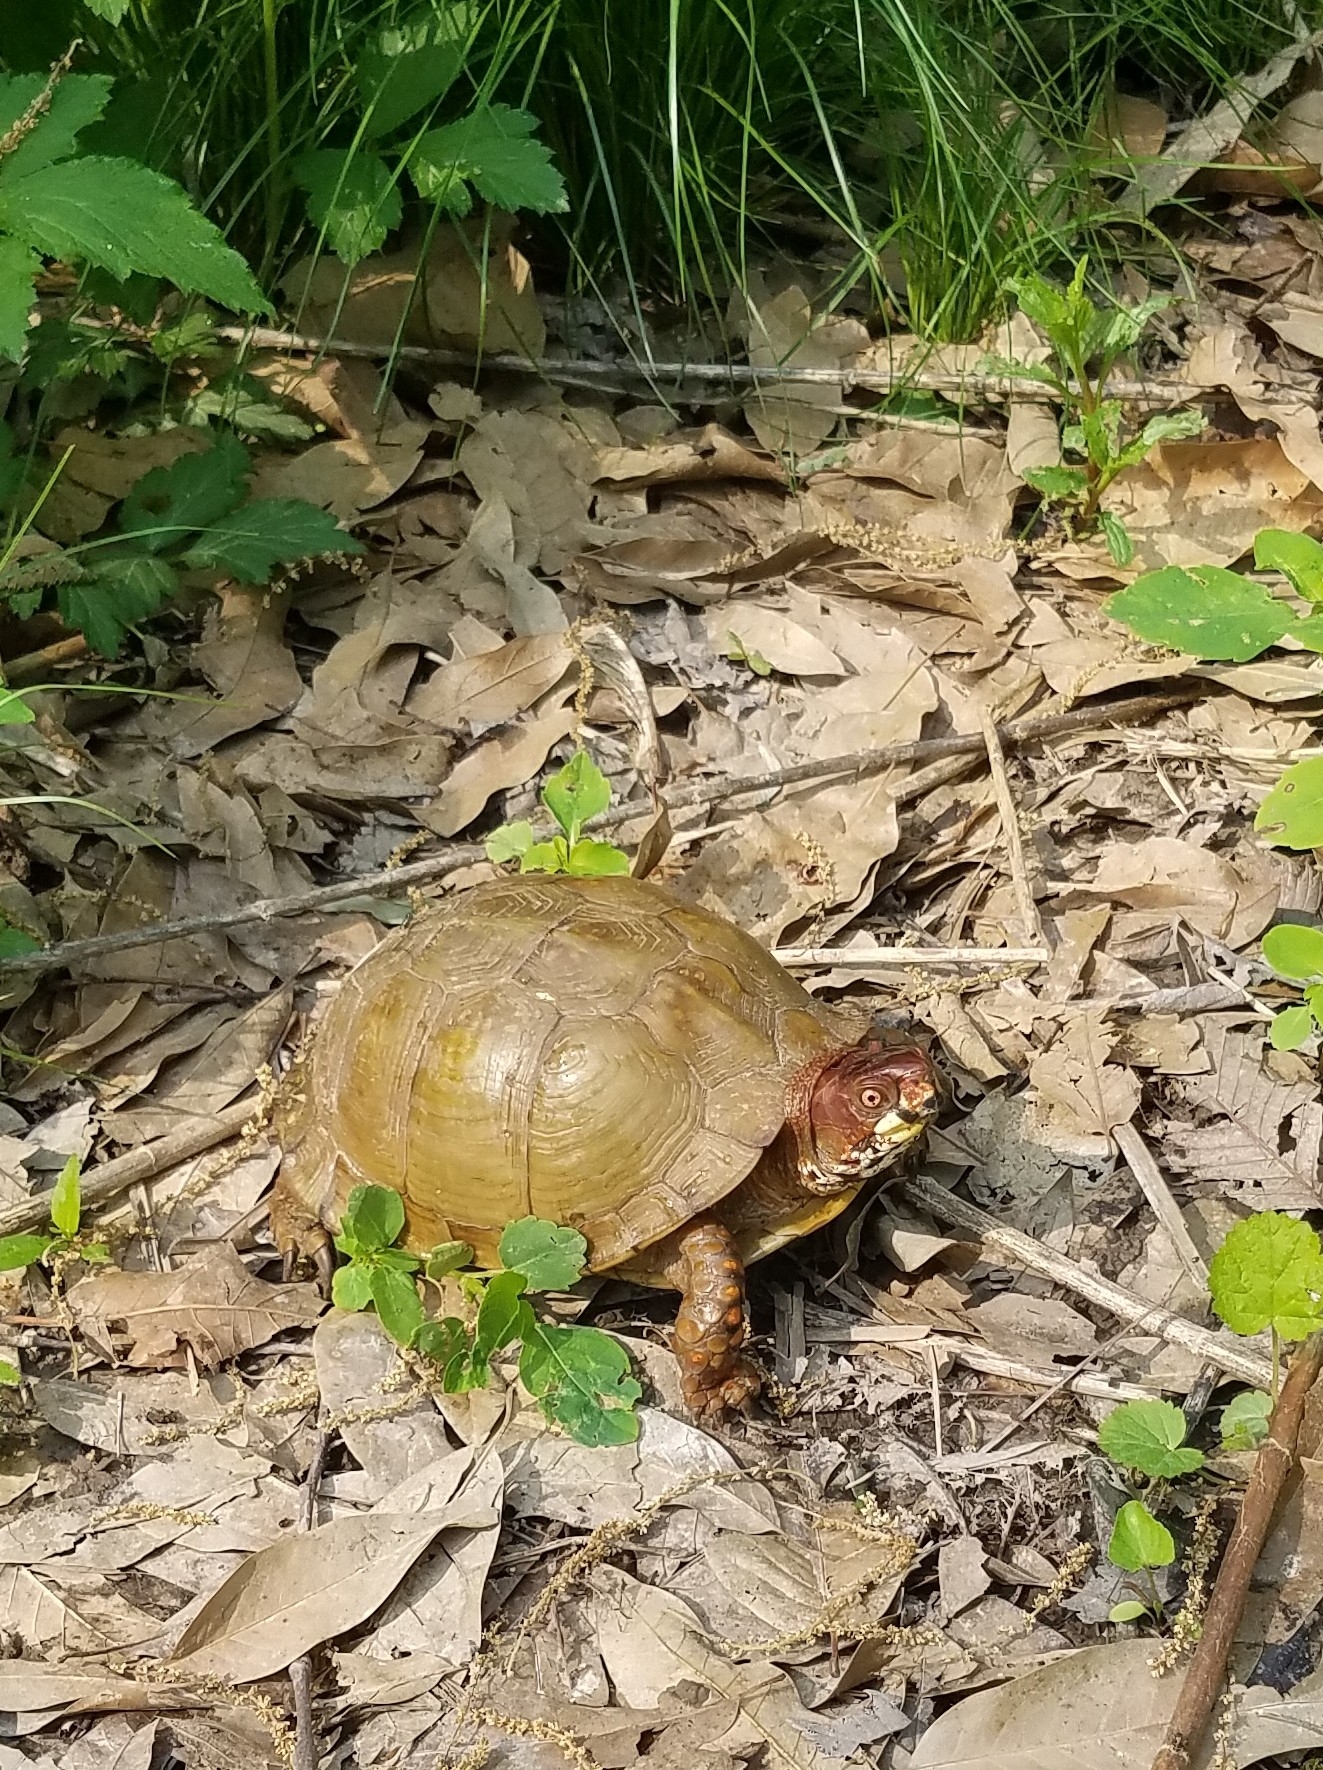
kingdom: Animalia
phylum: Chordata
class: Testudines
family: Emydidae
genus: Terrapene
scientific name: Terrapene carolina
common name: Common box turtle
